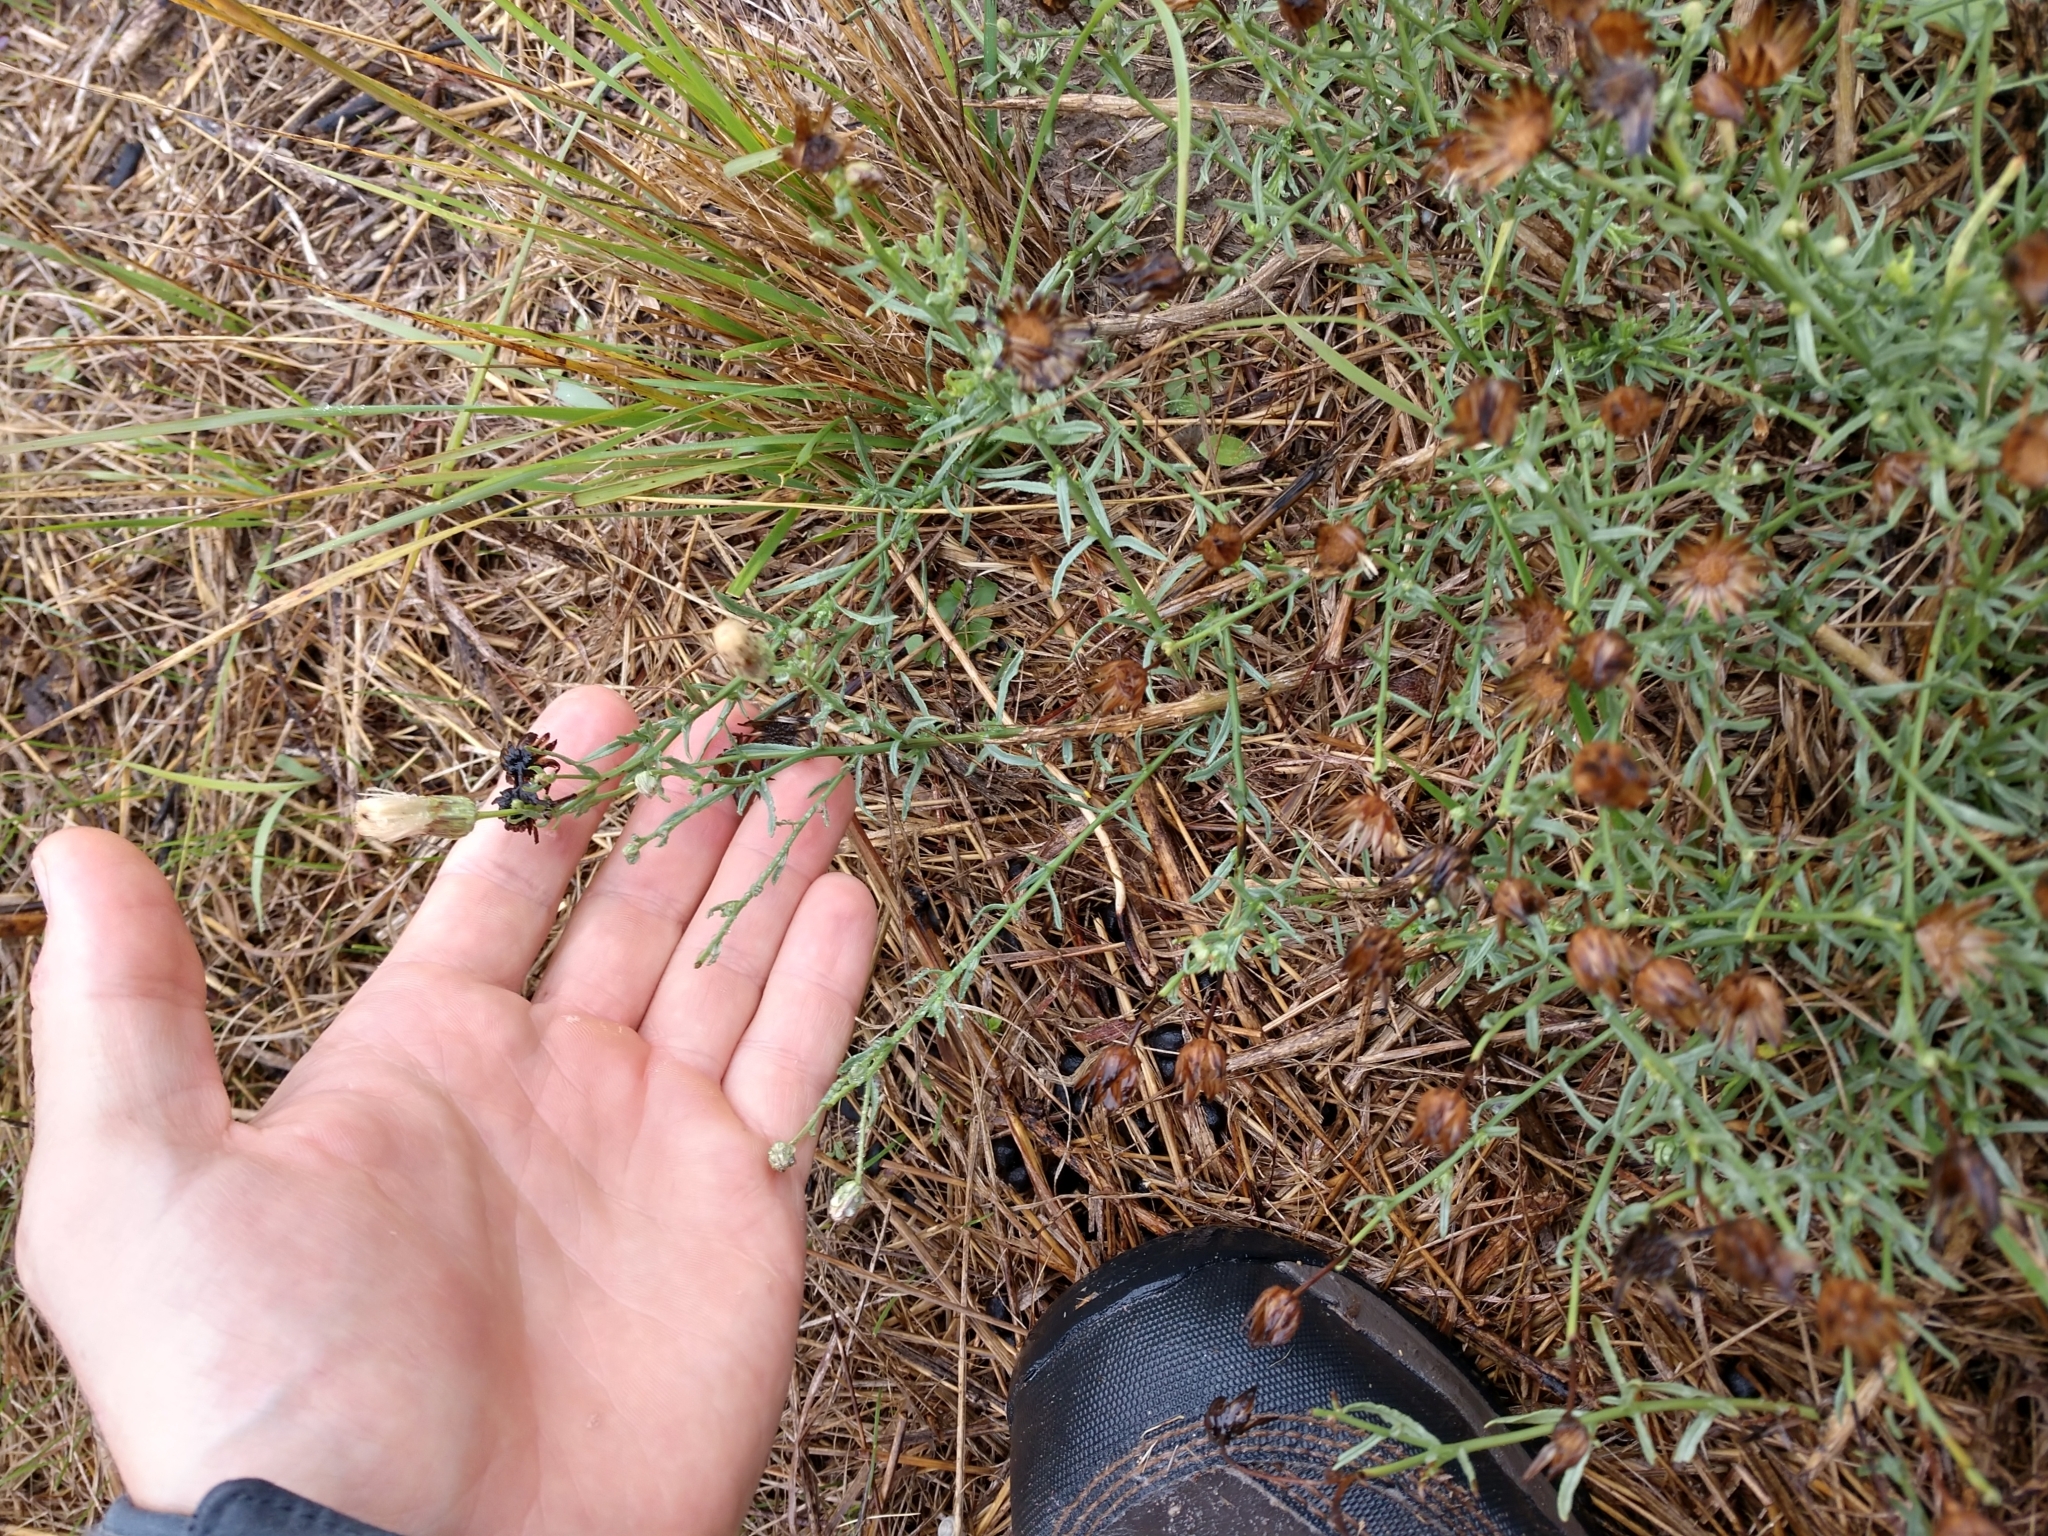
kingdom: Plantae
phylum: Tracheophyta
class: Magnoliopsida
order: Asterales
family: Asteraceae
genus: Baccharis
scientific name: Baccharis texana
